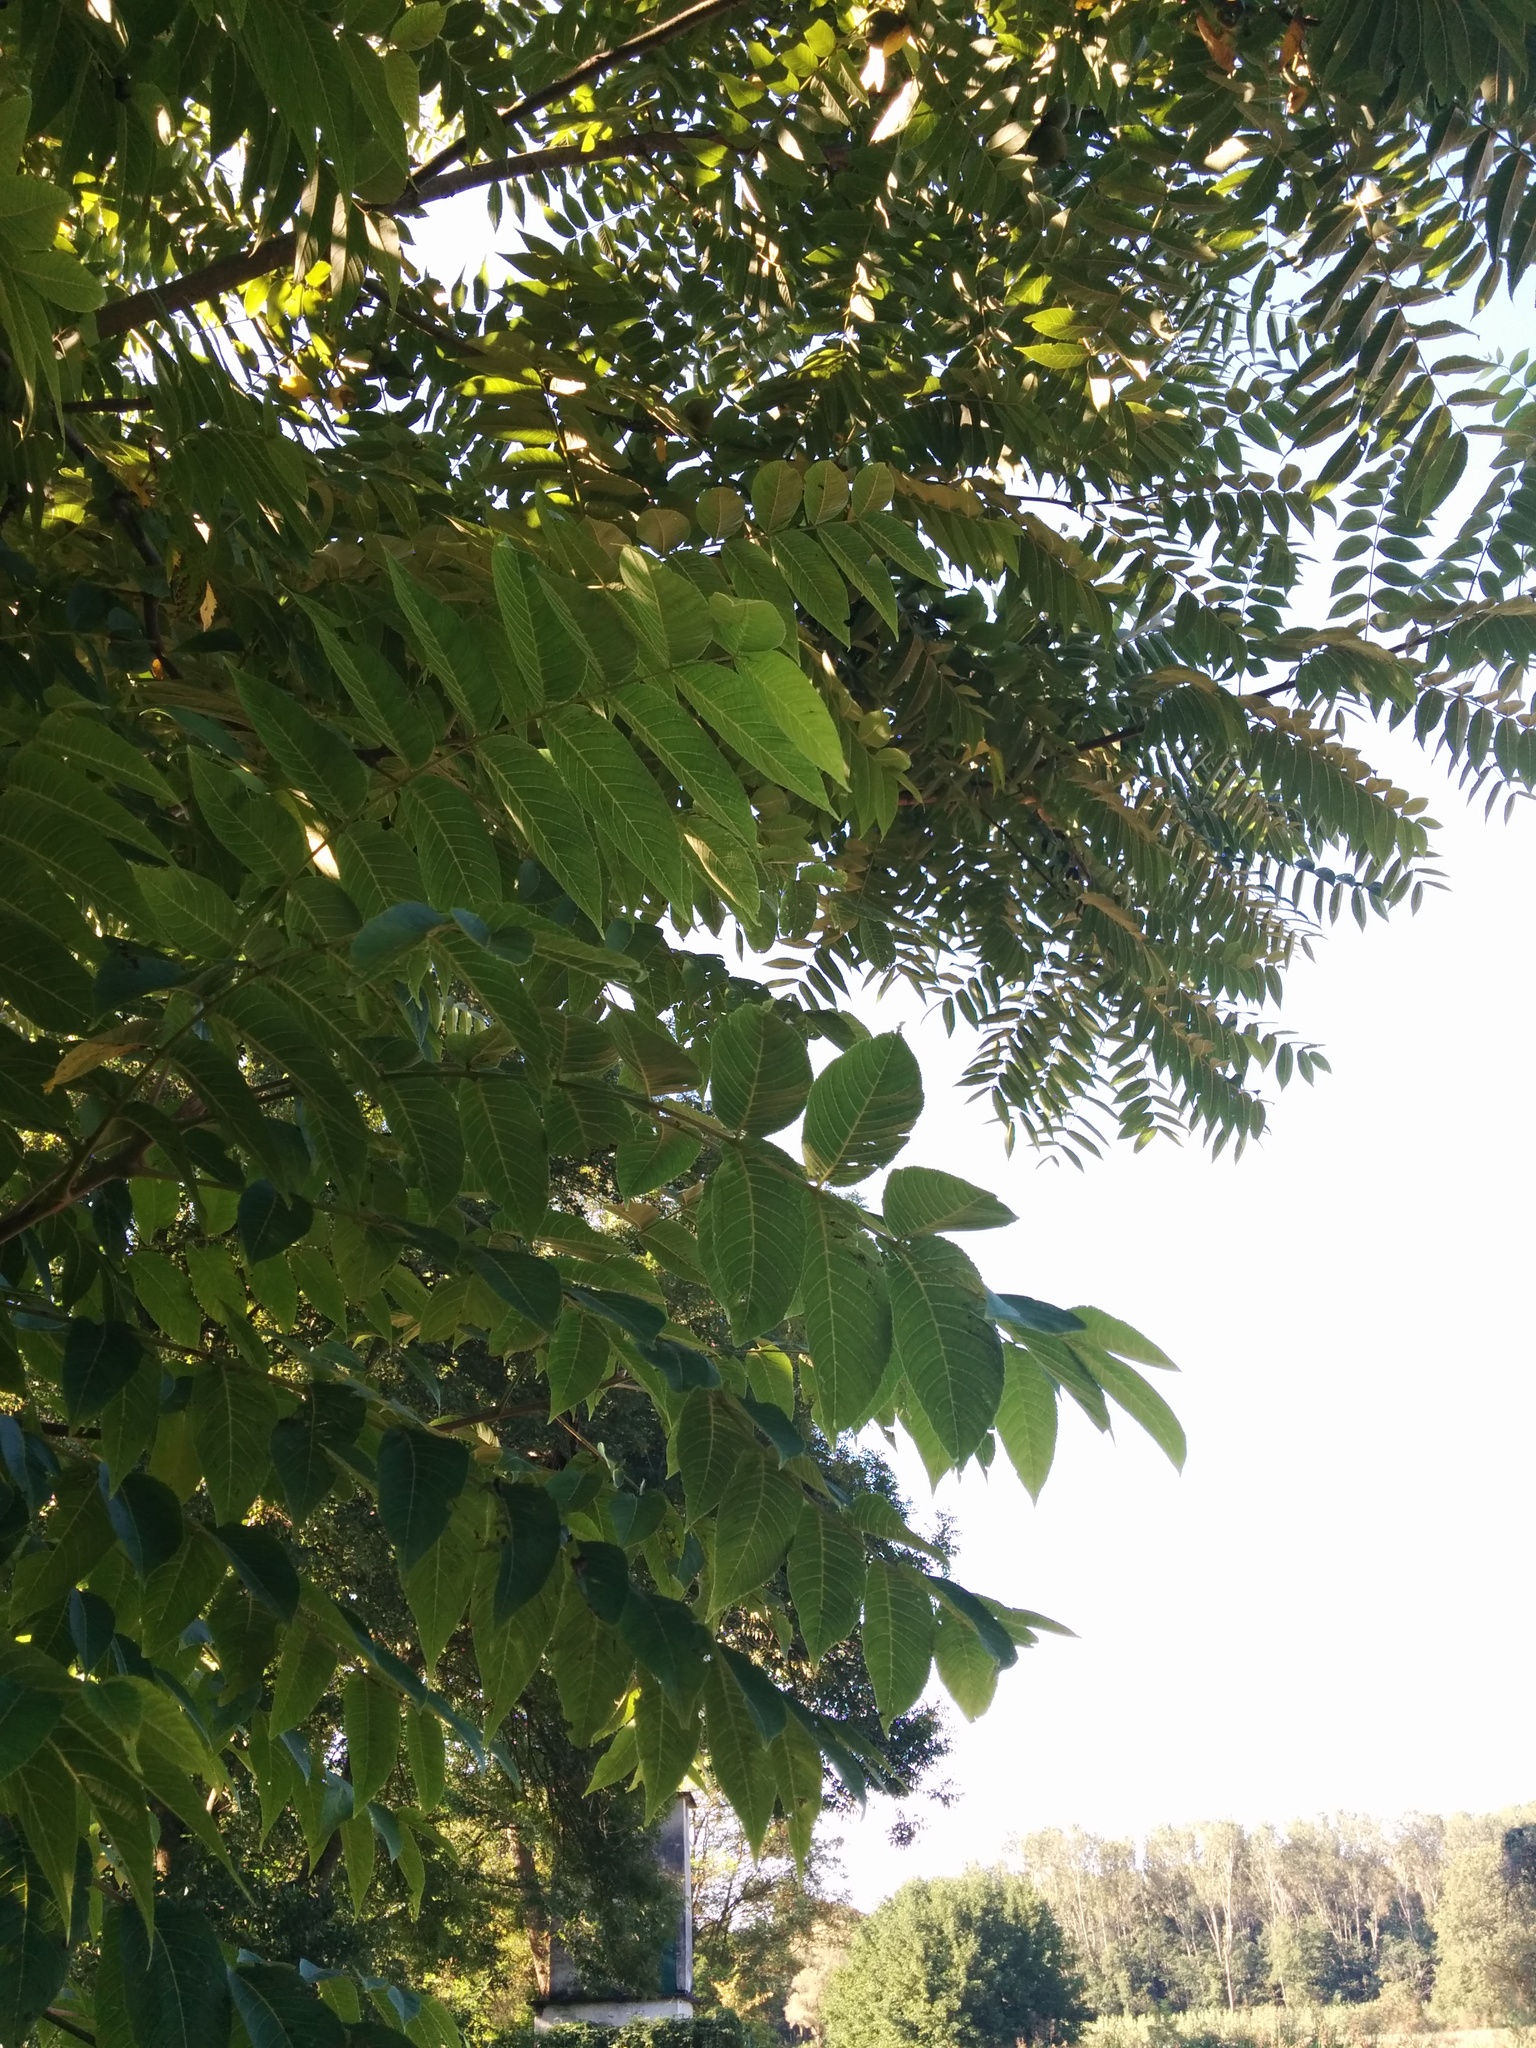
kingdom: Plantae
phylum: Tracheophyta
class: Magnoliopsida
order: Fagales
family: Juglandaceae
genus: Juglans
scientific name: Juglans nigra
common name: Black walnut
